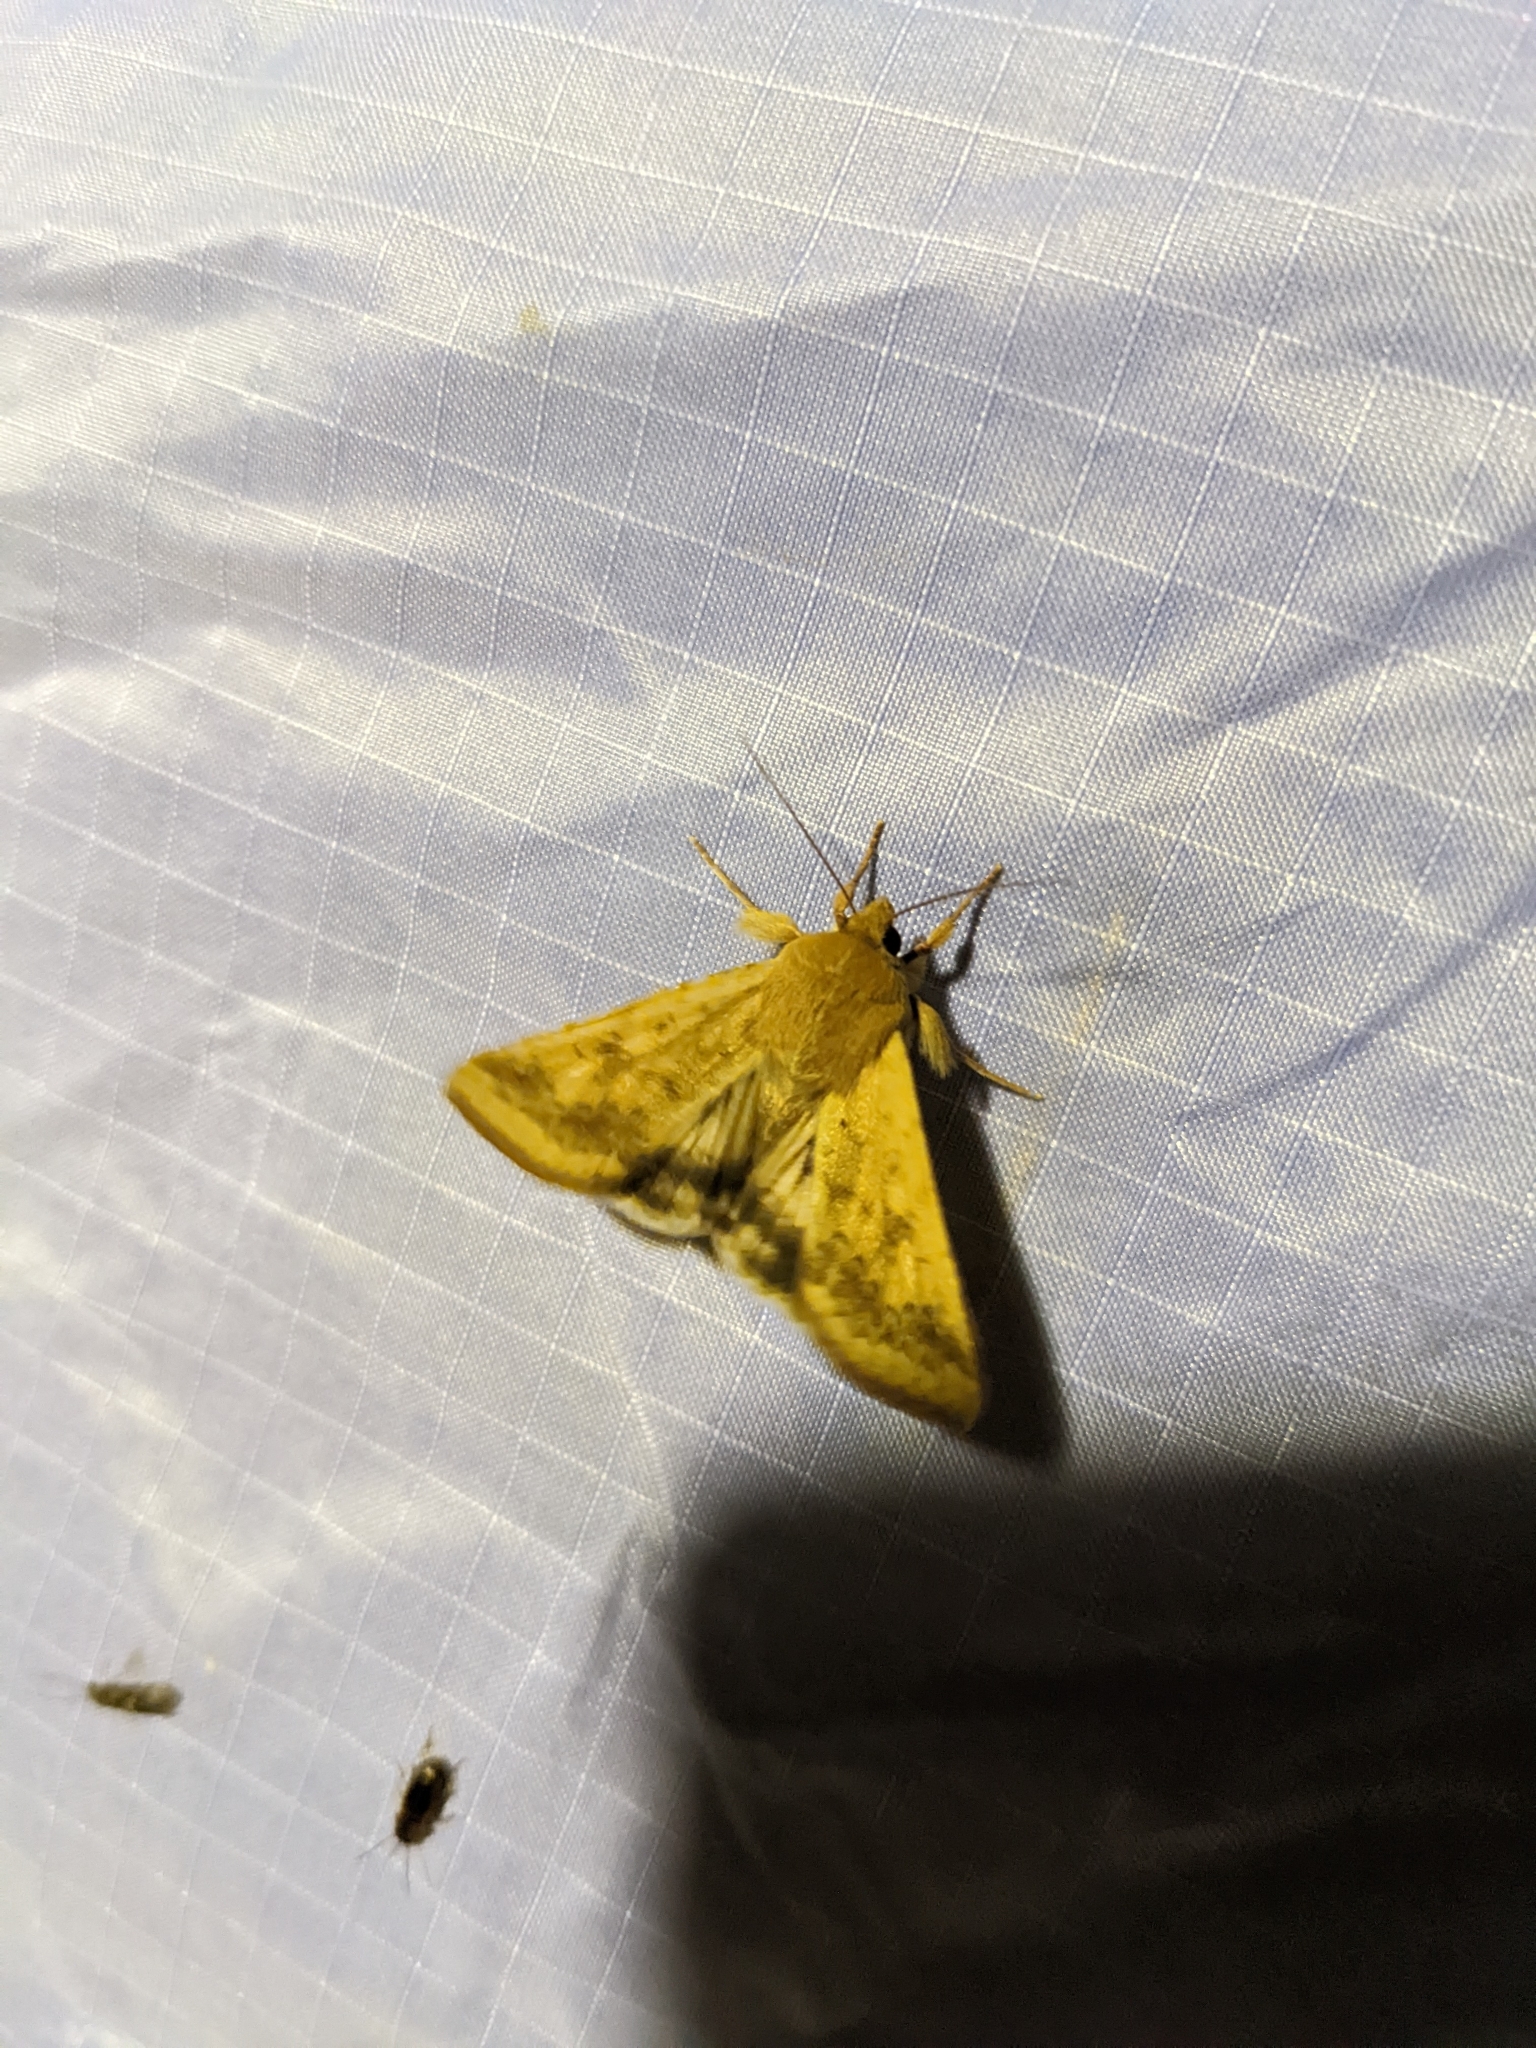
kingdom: Animalia
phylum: Arthropoda
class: Insecta
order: Lepidoptera
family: Noctuidae
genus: Helicoverpa
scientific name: Helicoverpa zea
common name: Bollworm
